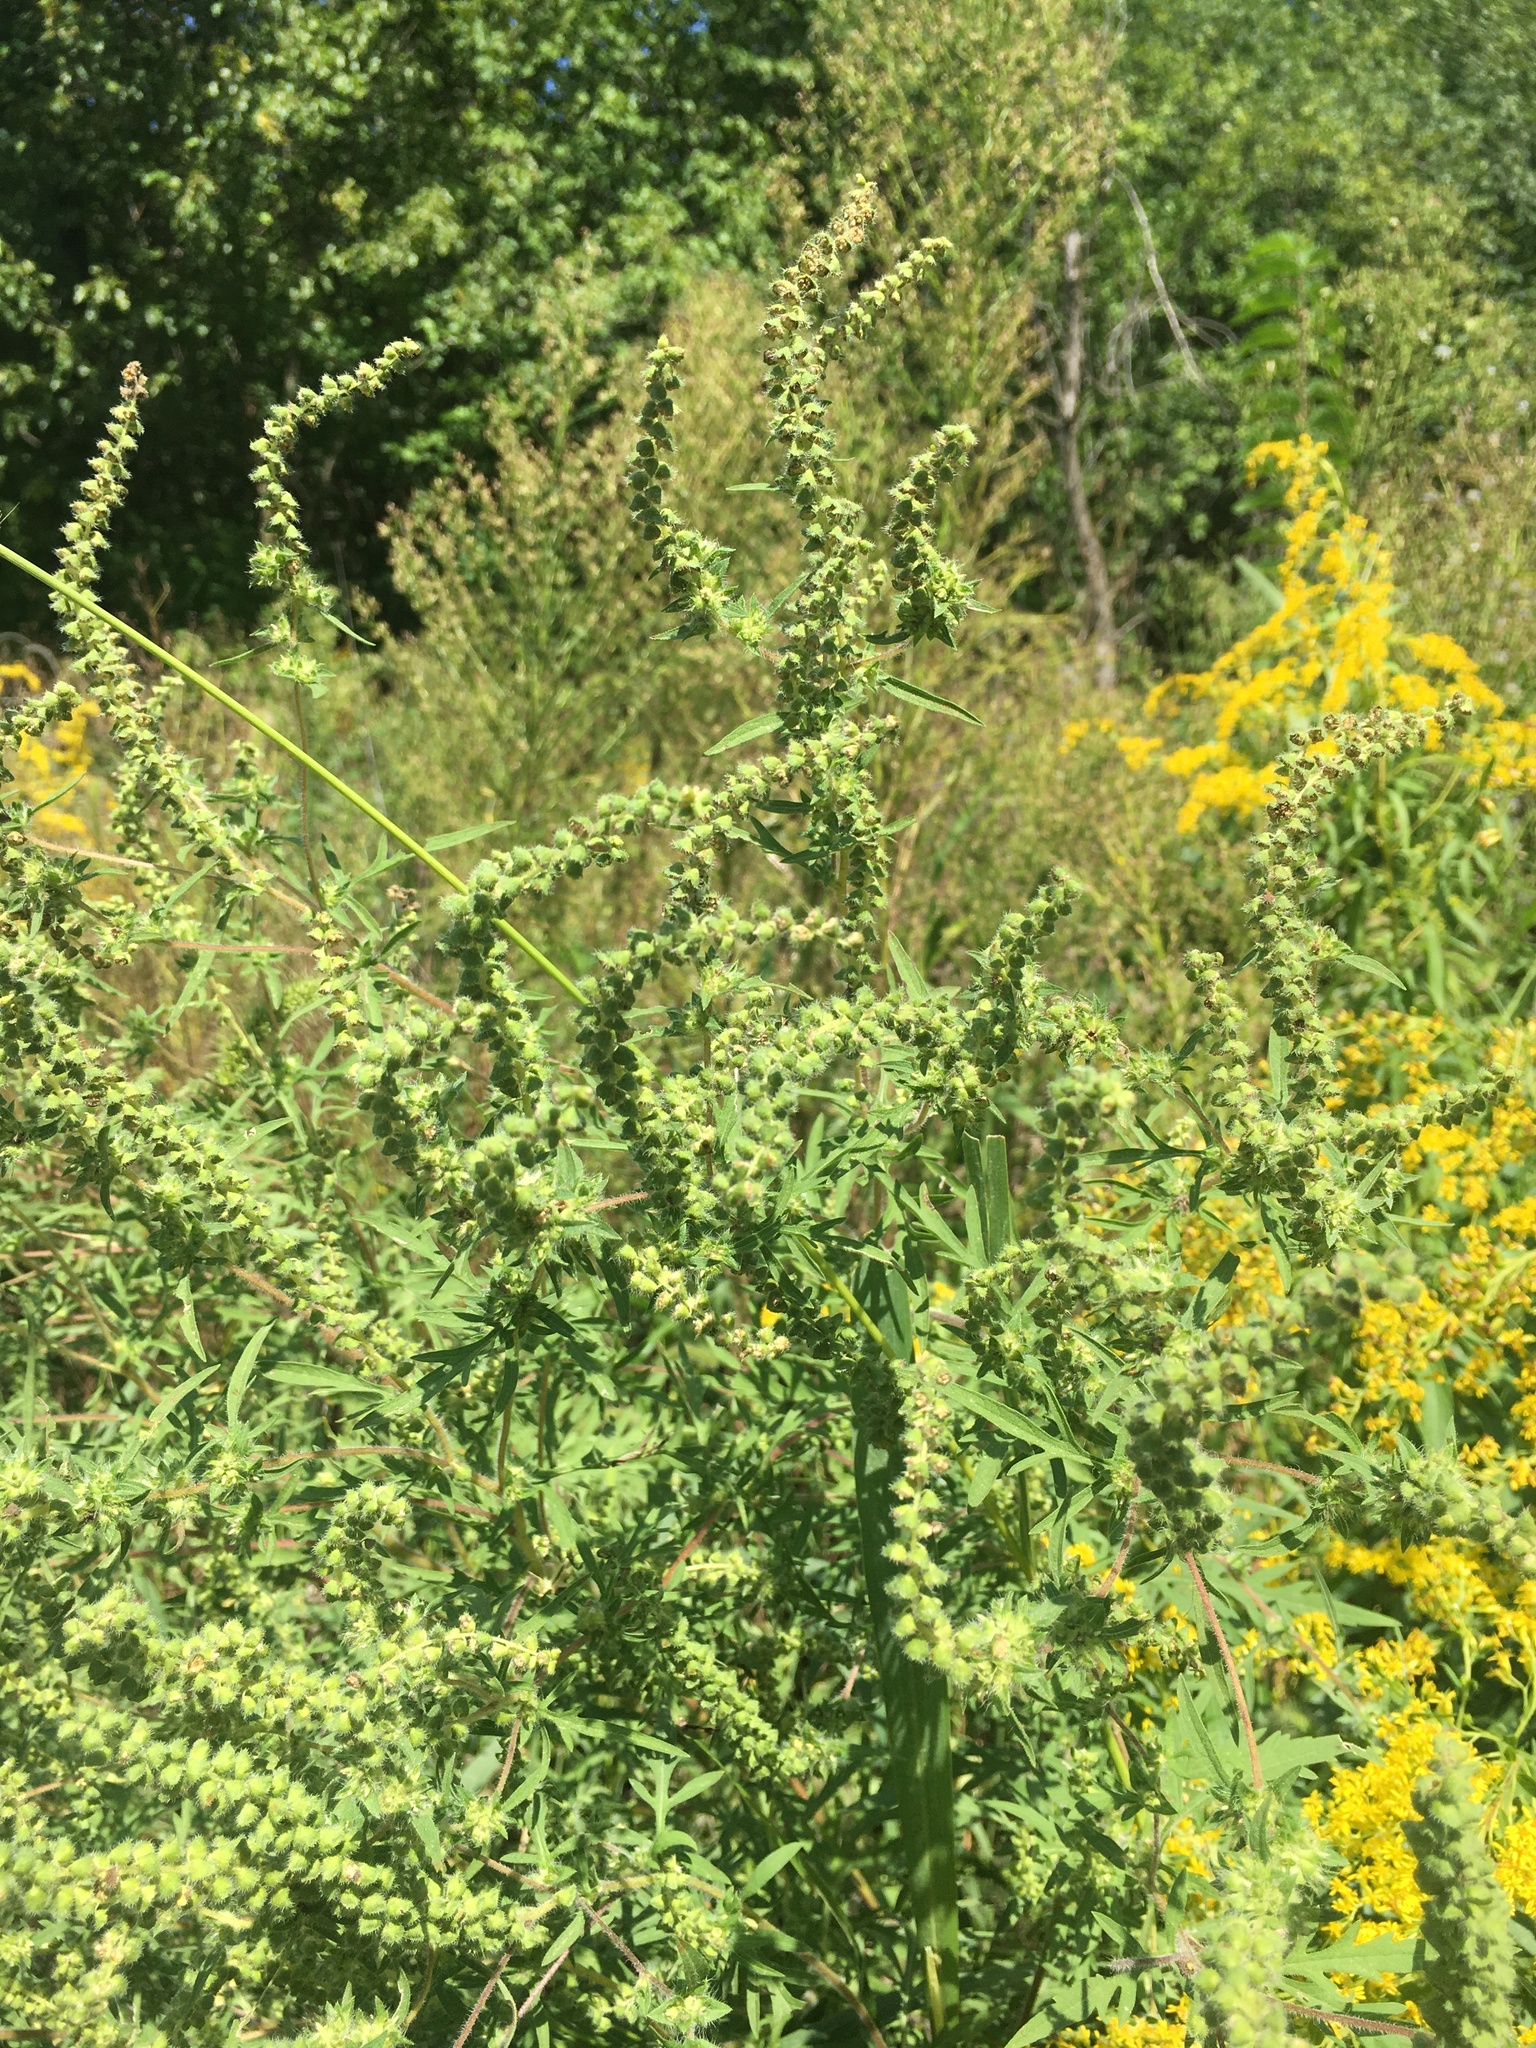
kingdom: Plantae
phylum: Tracheophyta
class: Magnoliopsida
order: Asterales
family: Asteraceae
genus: Ambrosia
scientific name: Ambrosia artemisiifolia
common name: Annual ragweed
